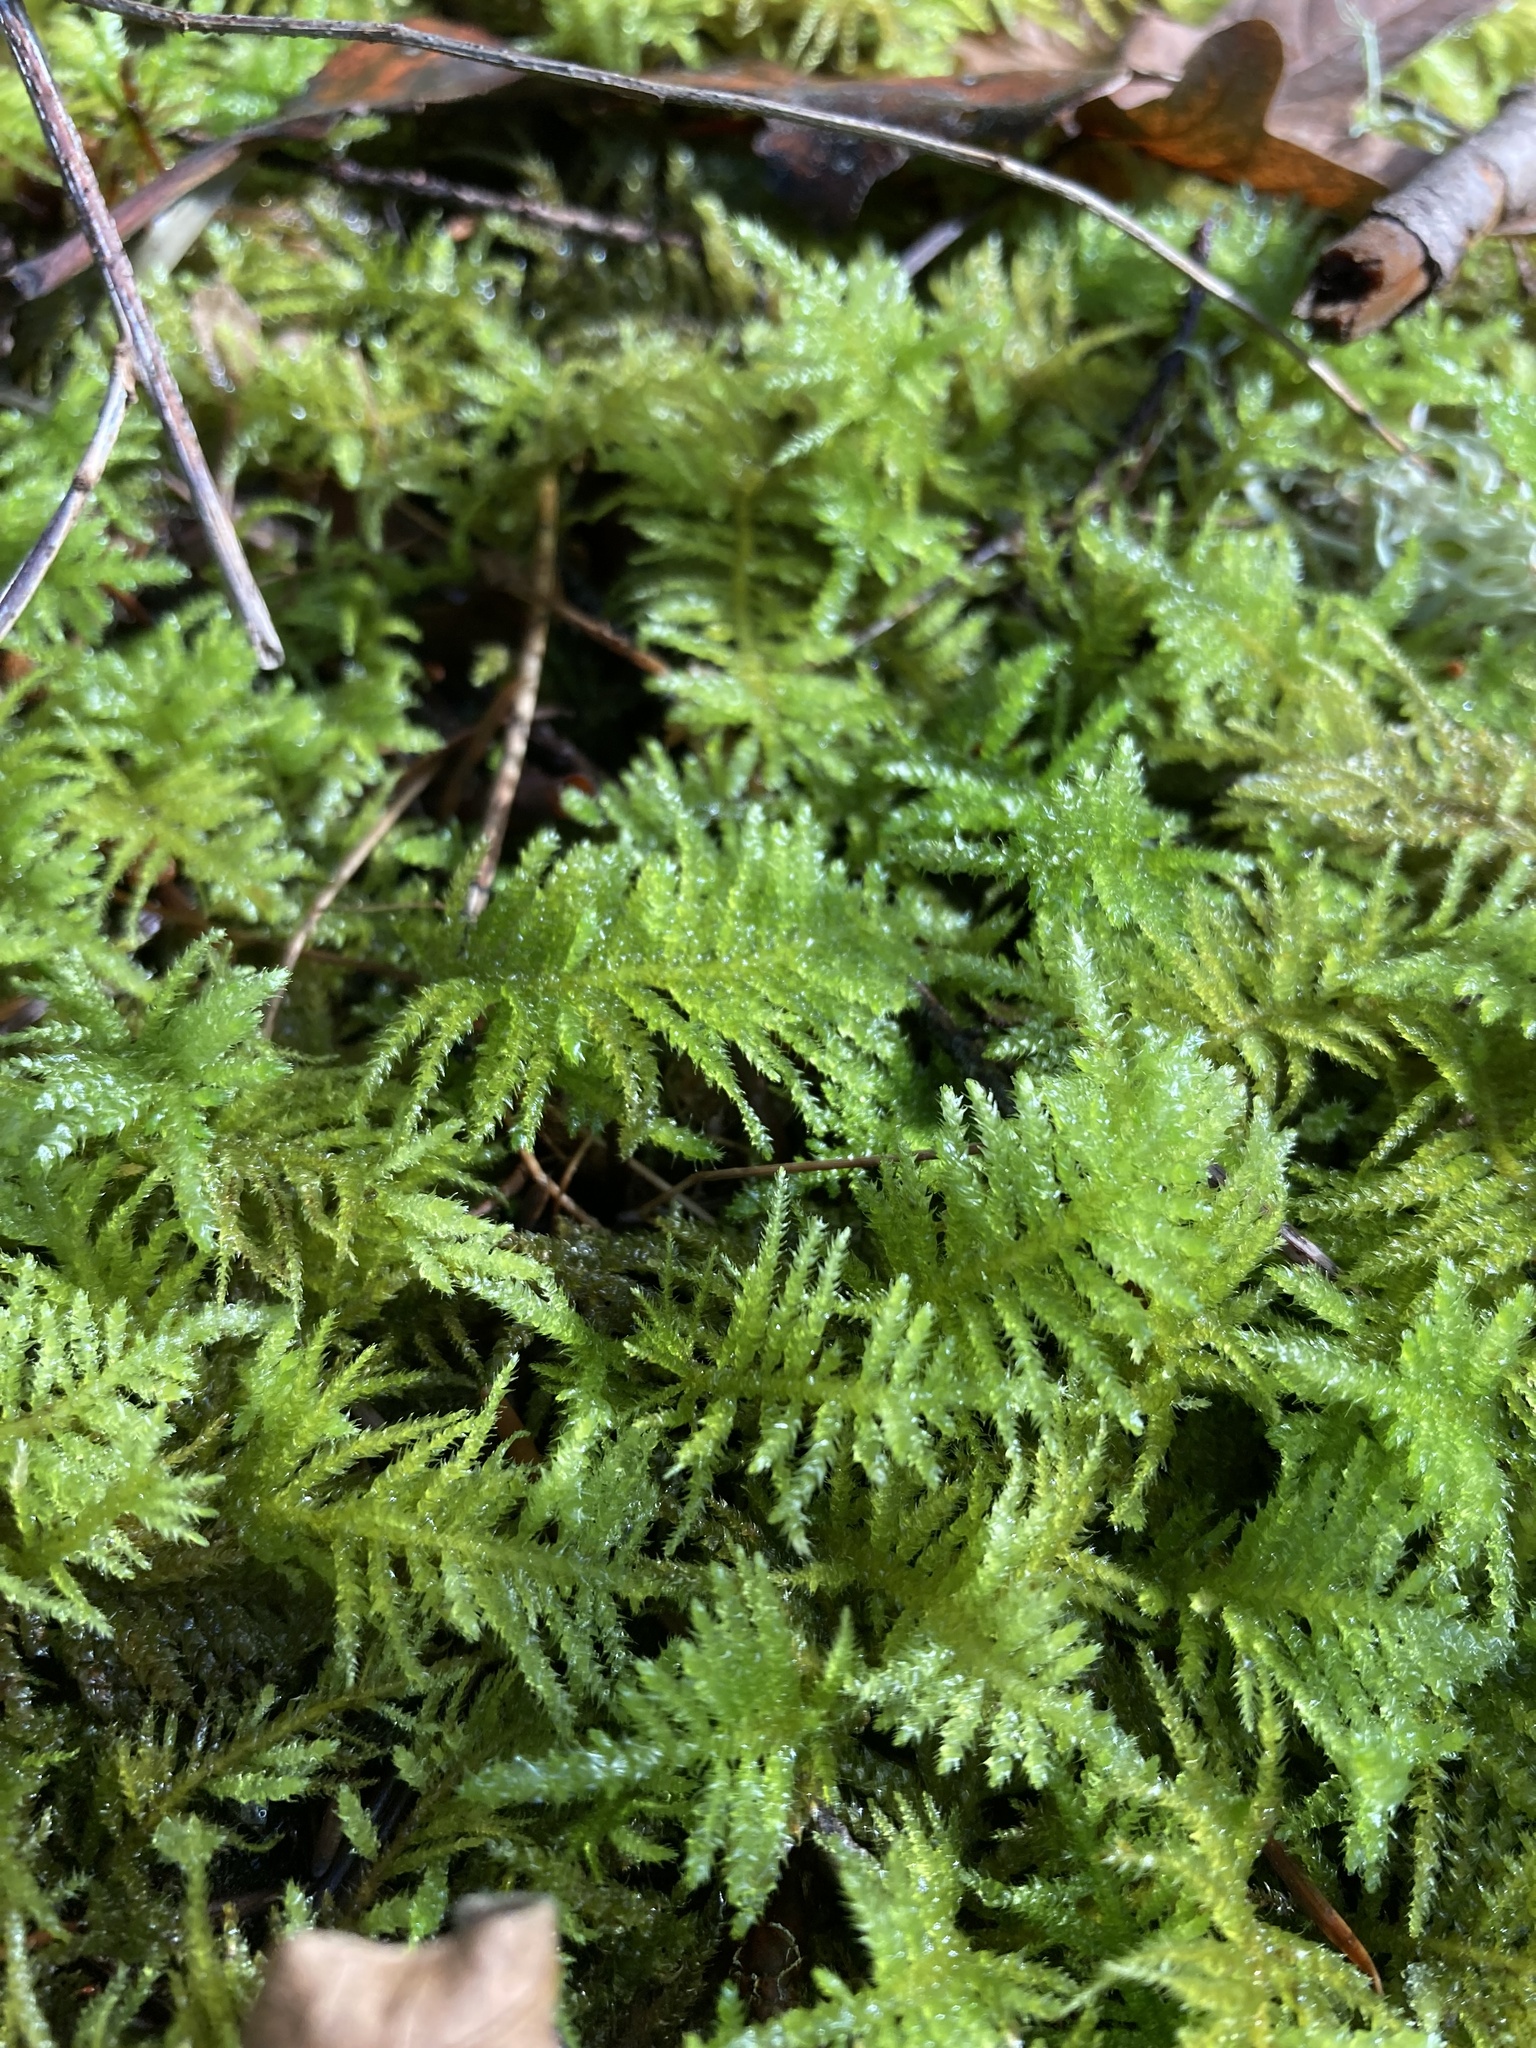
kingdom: Plantae
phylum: Bryophyta
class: Bryopsida
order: Hypnales
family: Brachytheciaceae
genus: Kindbergia
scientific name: Kindbergia oregana
